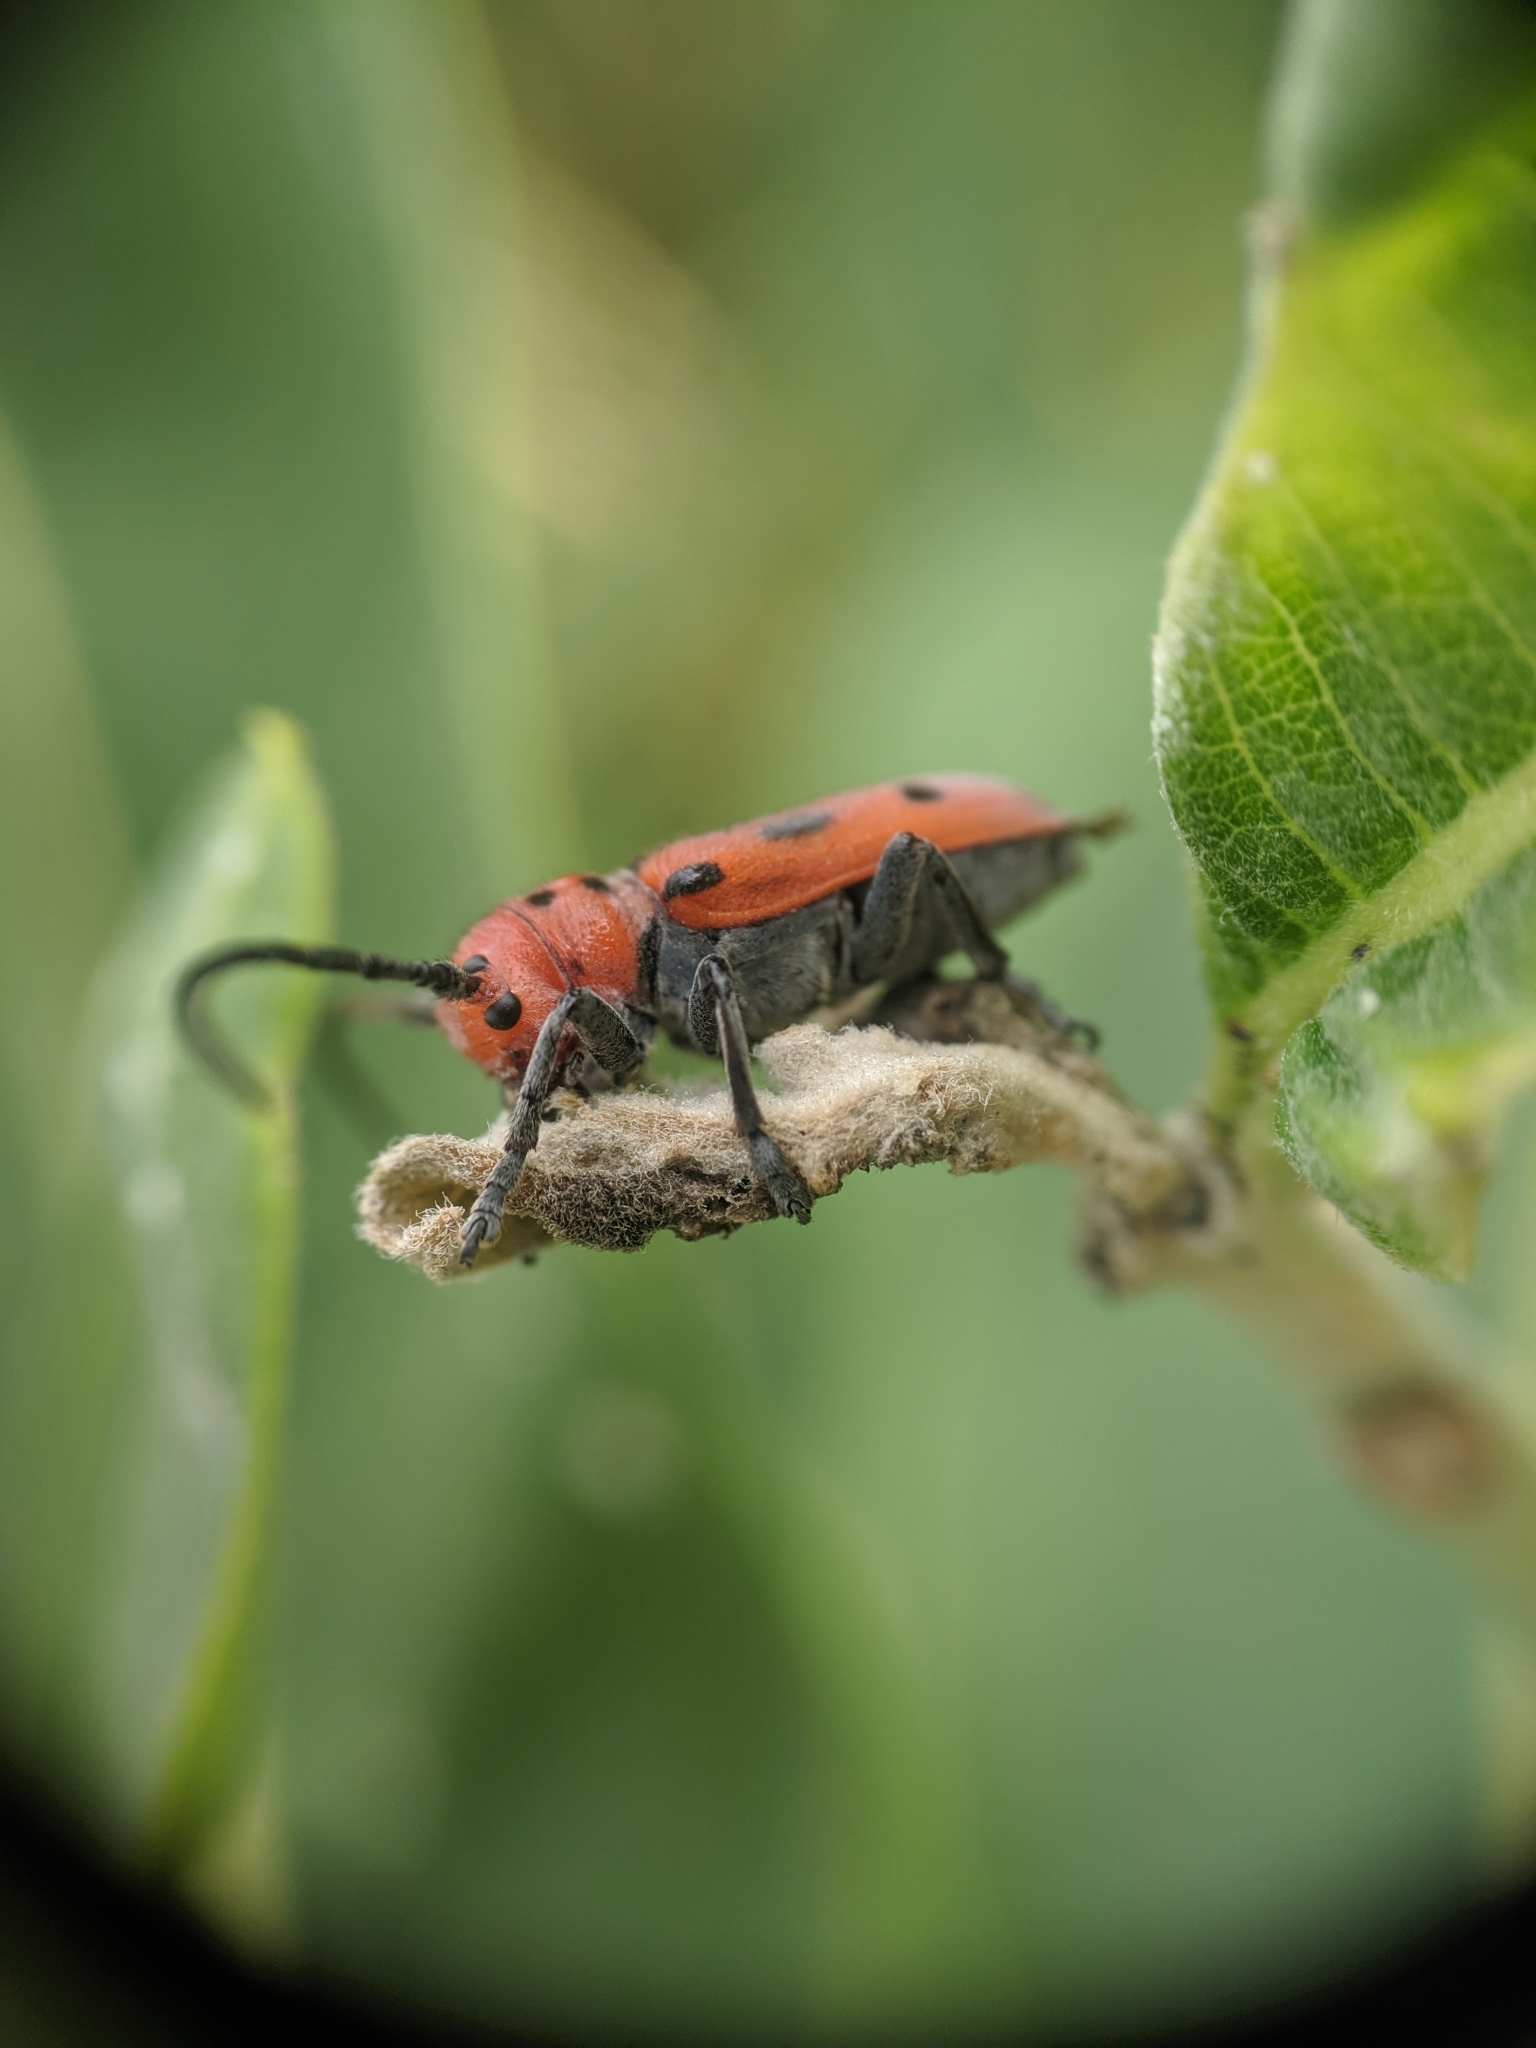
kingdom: Animalia
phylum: Arthropoda
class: Insecta
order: Coleoptera
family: Cerambycidae
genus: Tetraopes
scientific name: Tetraopes tetrophthalmus
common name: Red milkweed beetle
